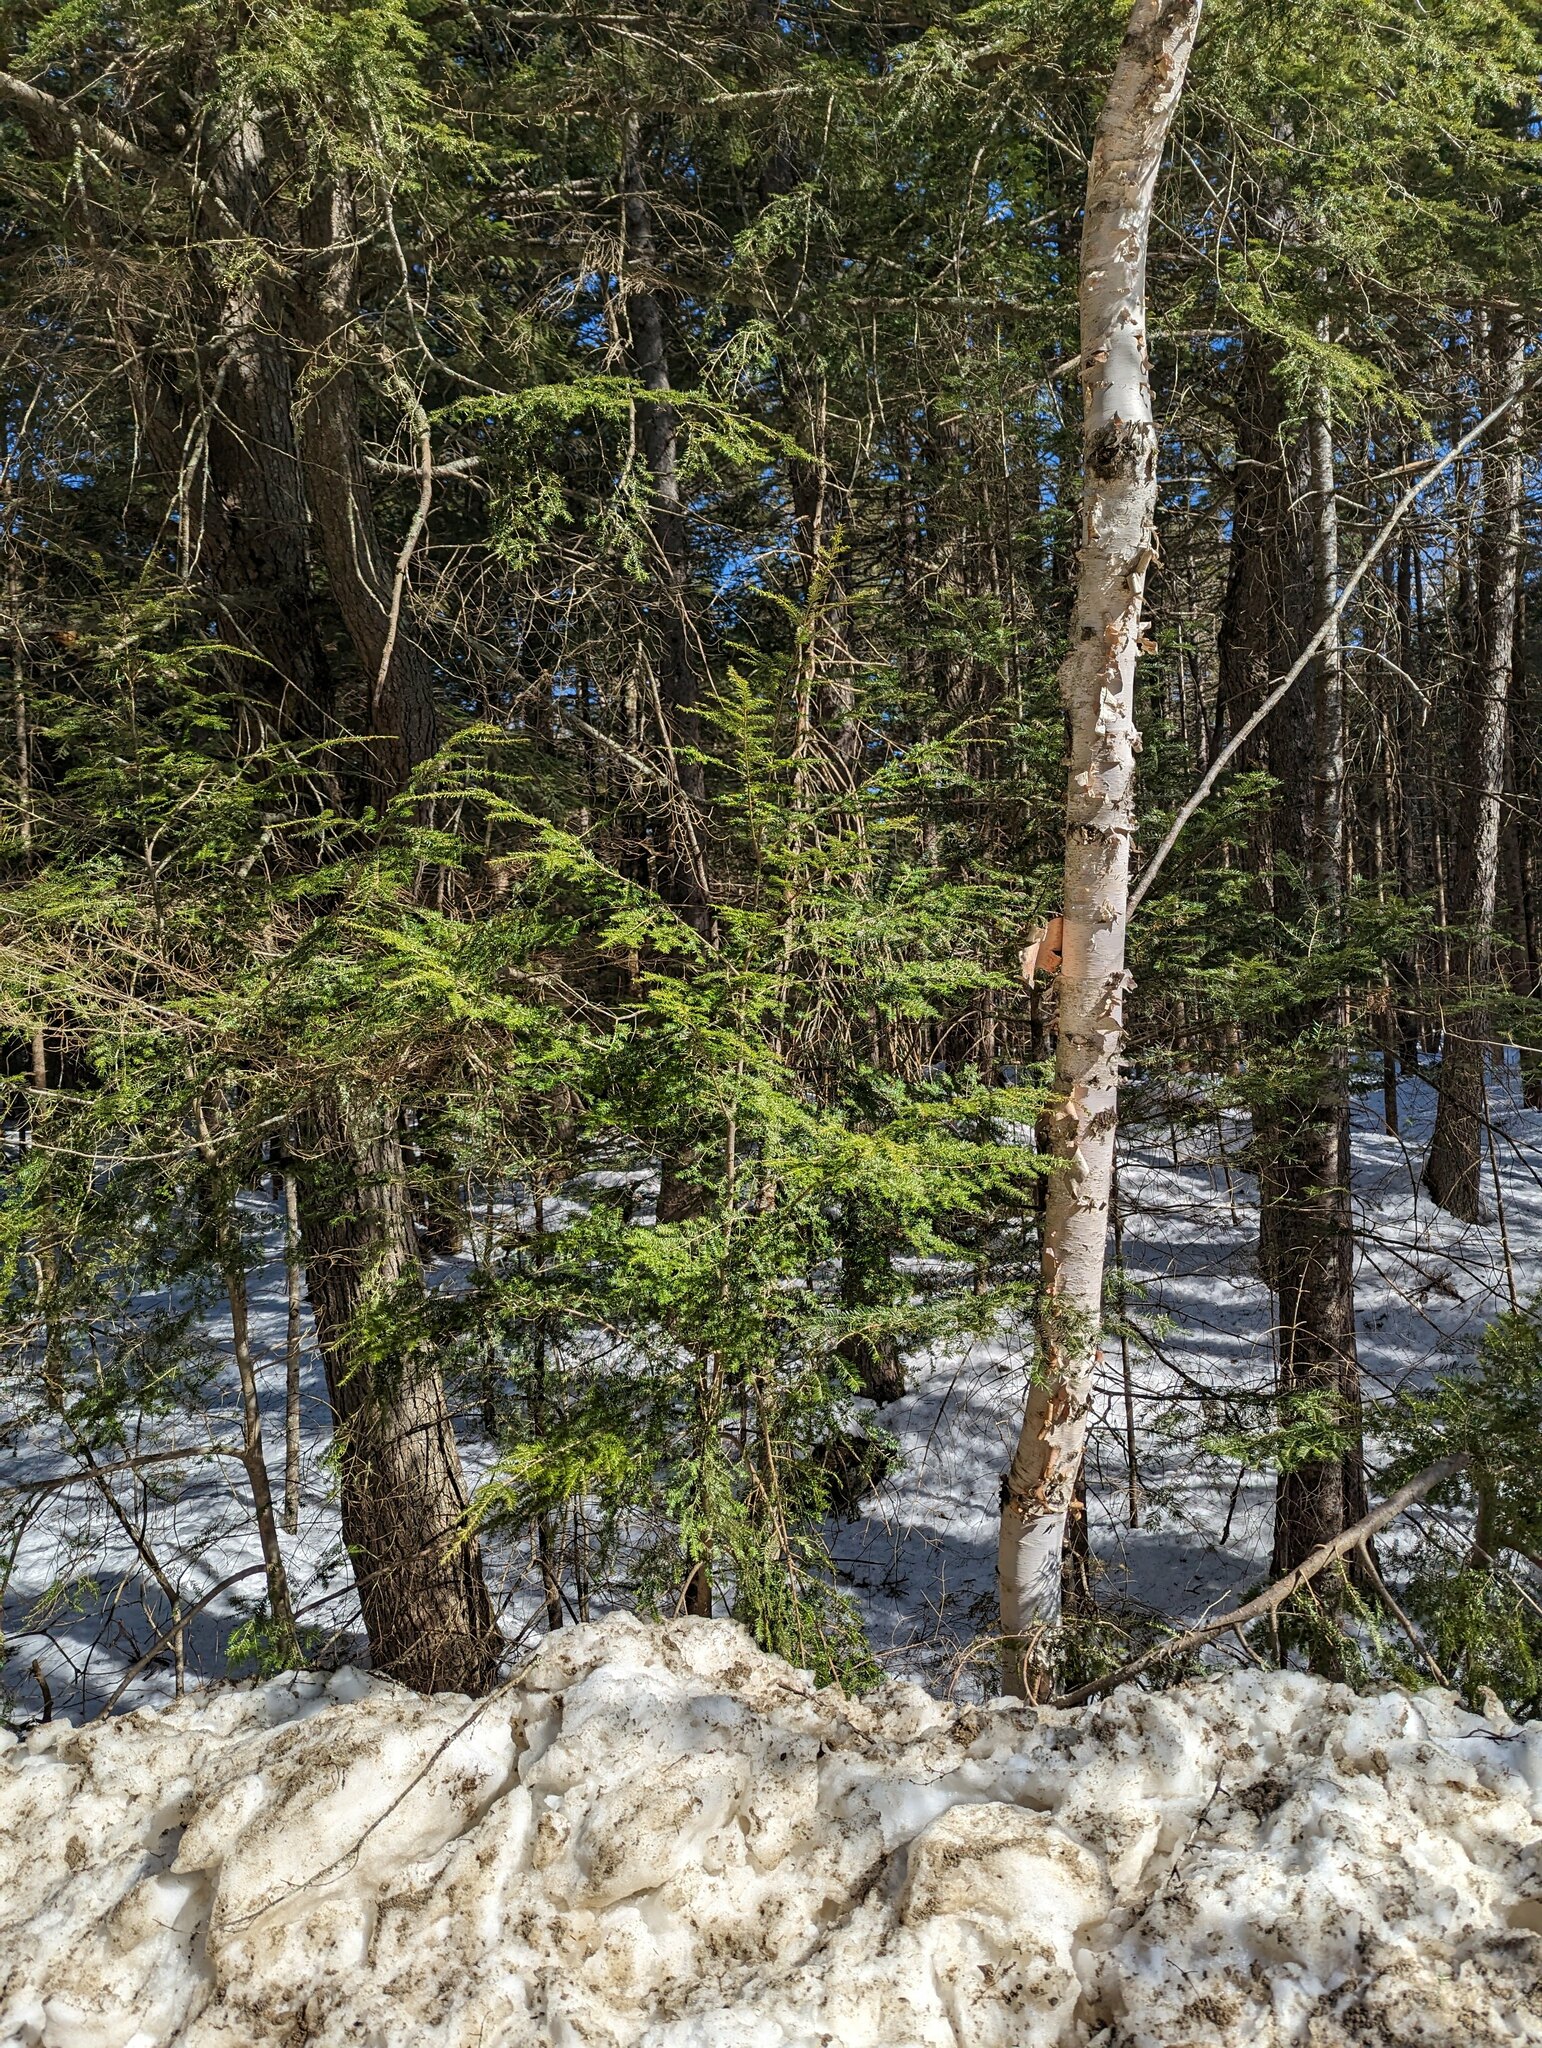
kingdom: Plantae
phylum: Tracheophyta
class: Pinopsida
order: Pinales
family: Pinaceae
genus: Tsuga
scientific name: Tsuga canadensis
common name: Eastern hemlock
